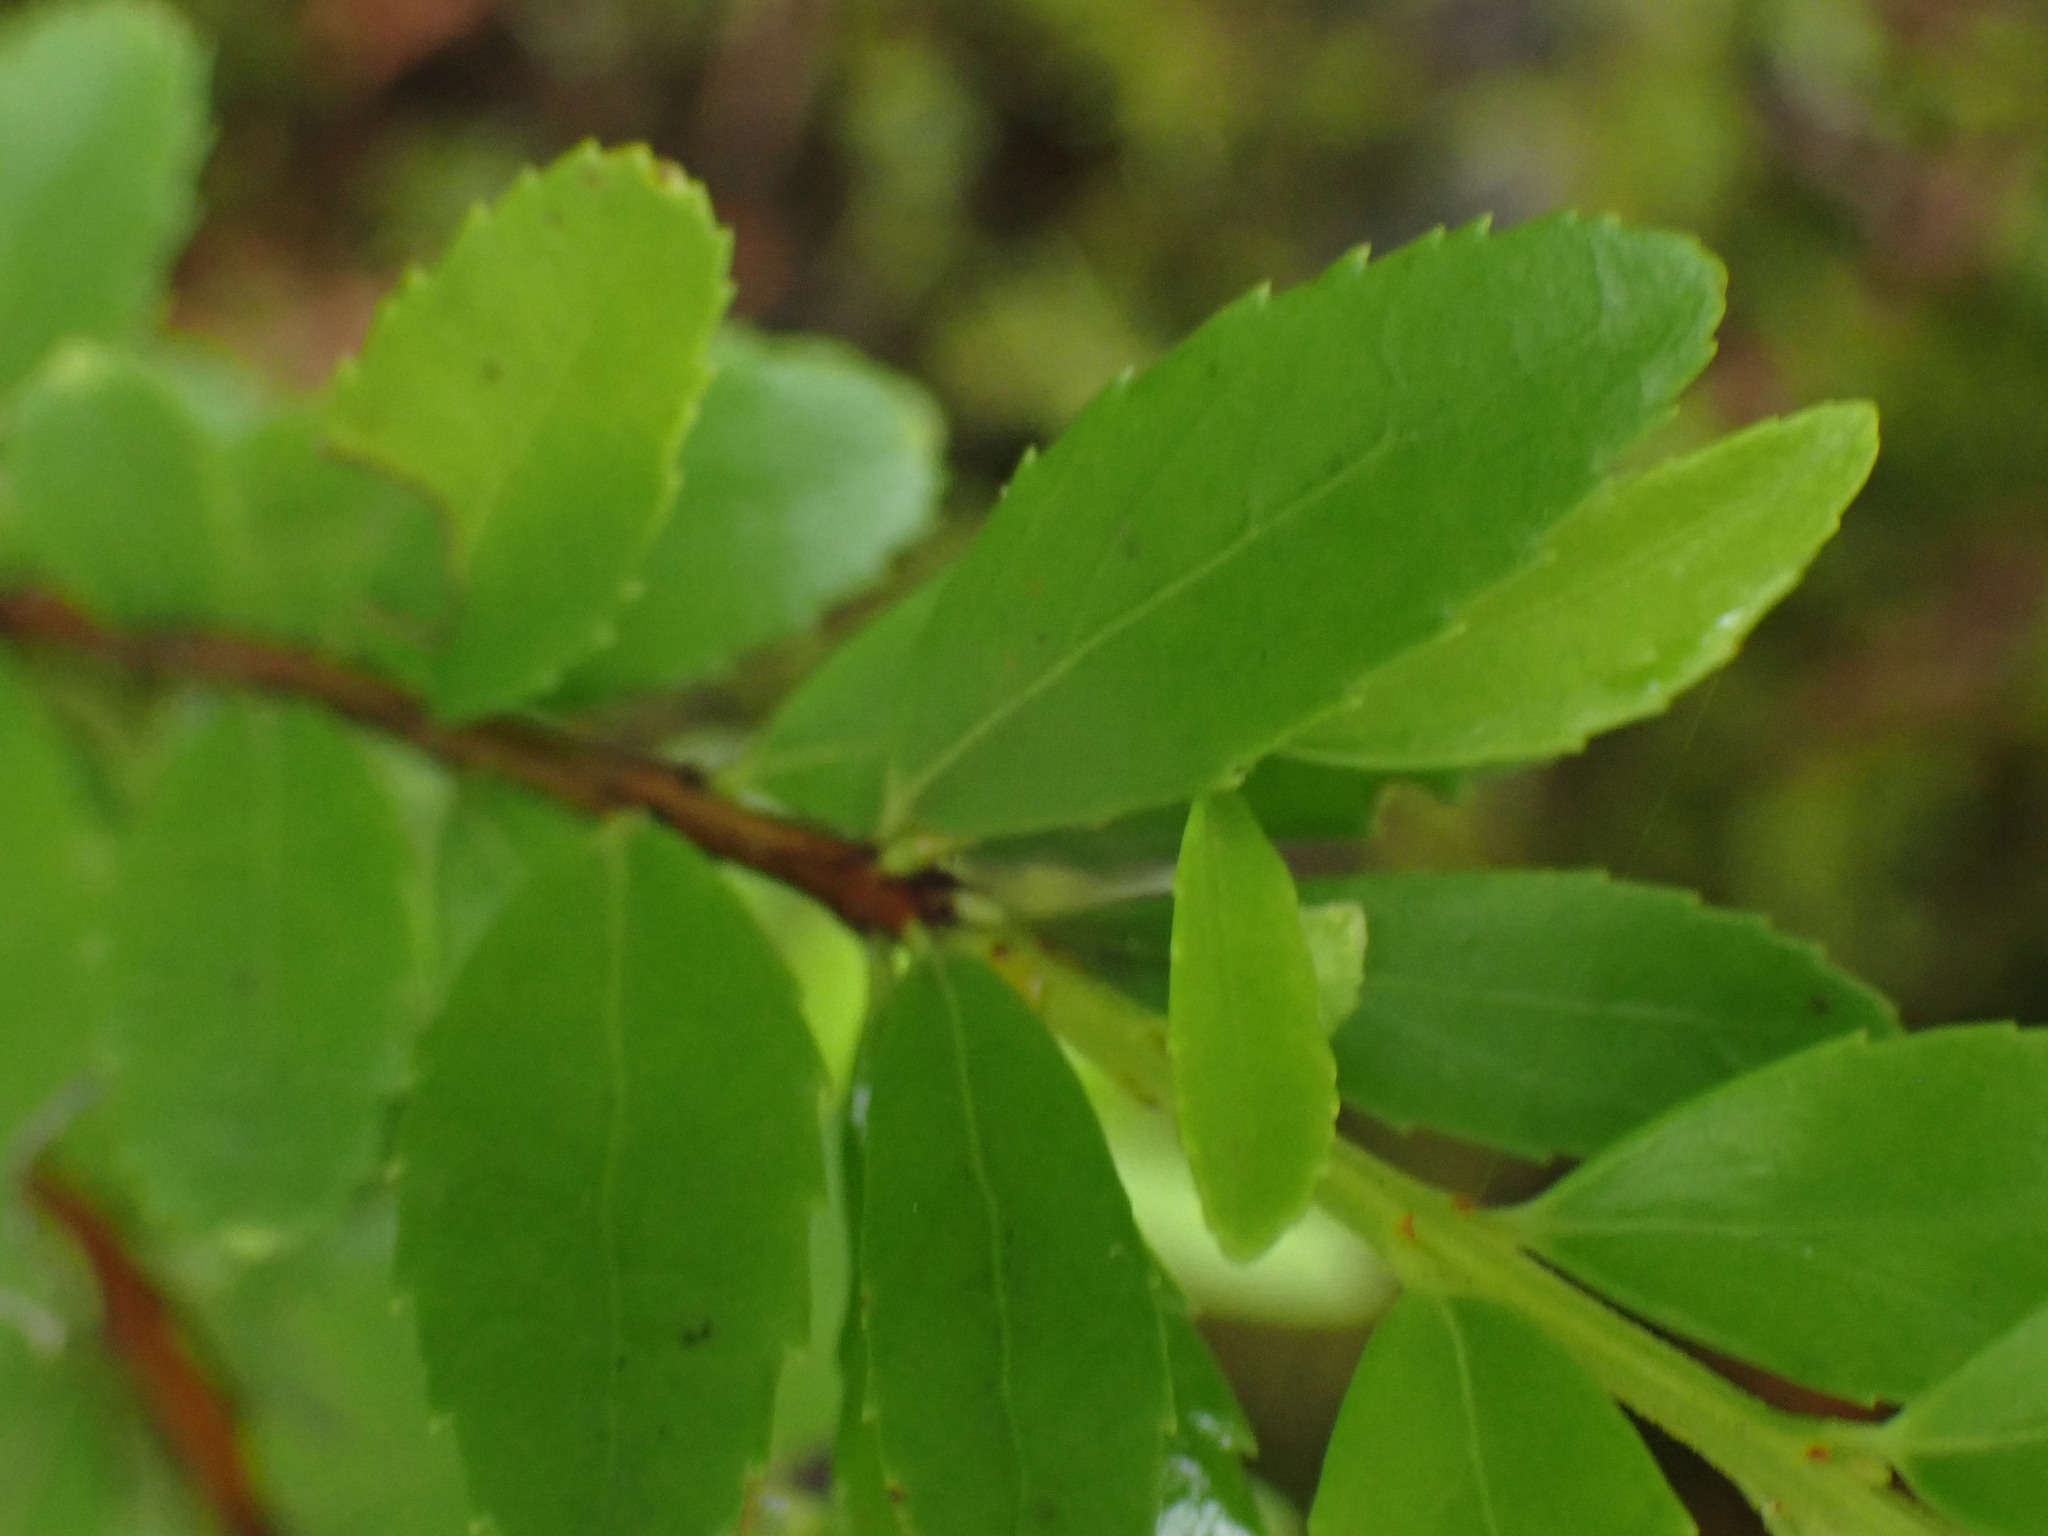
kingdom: Plantae
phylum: Tracheophyta
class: Magnoliopsida
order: Celastrales
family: Celastraceae
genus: Paxistima
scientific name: Paxistima myrsinites
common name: Mountain-lover
